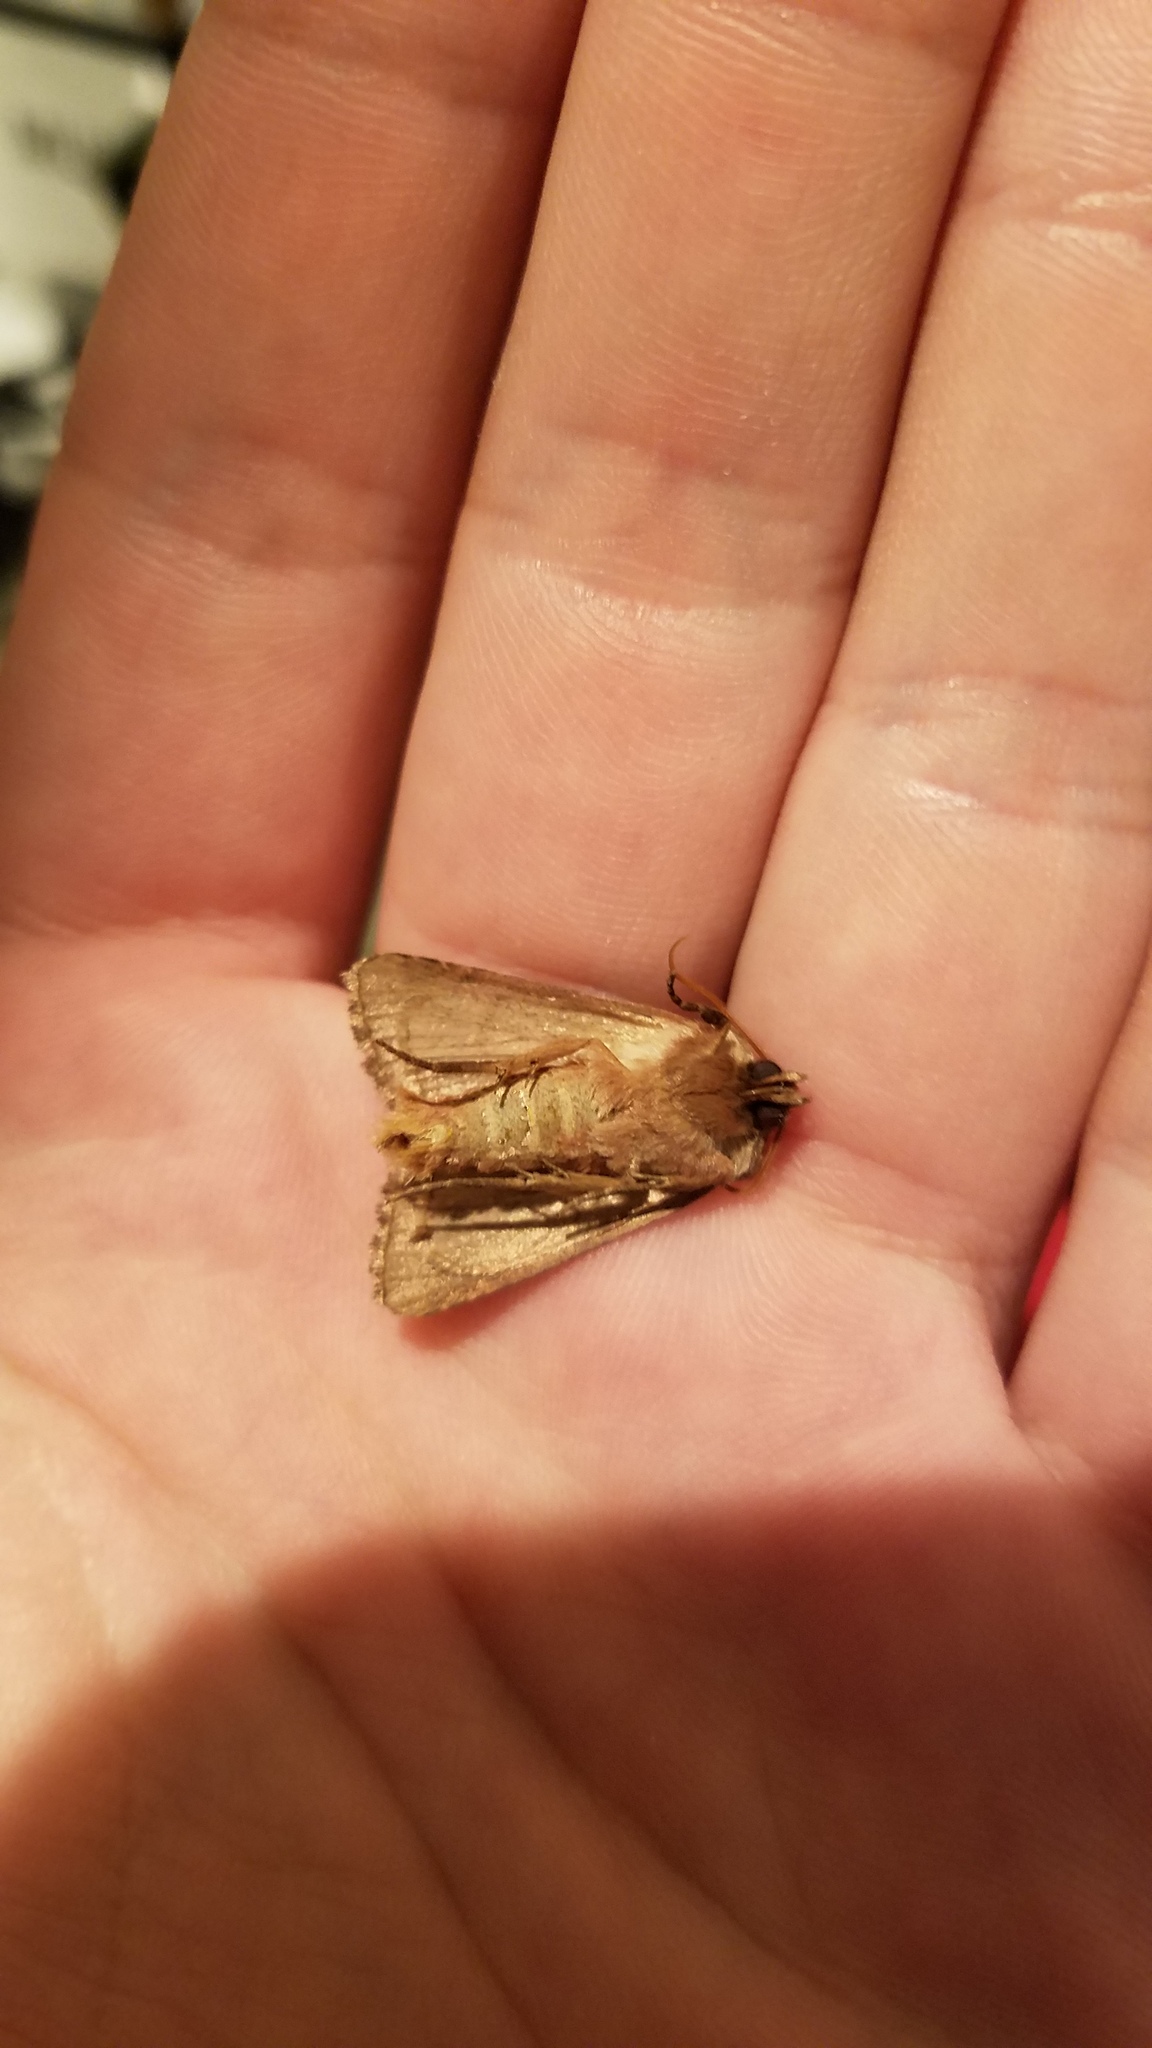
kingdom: Animalia
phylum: Arthropoda
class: Insecta
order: Lepidoptera
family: Noctuidae
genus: Nephelodes
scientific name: Nephelodes minians
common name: Bronzed cutworm
